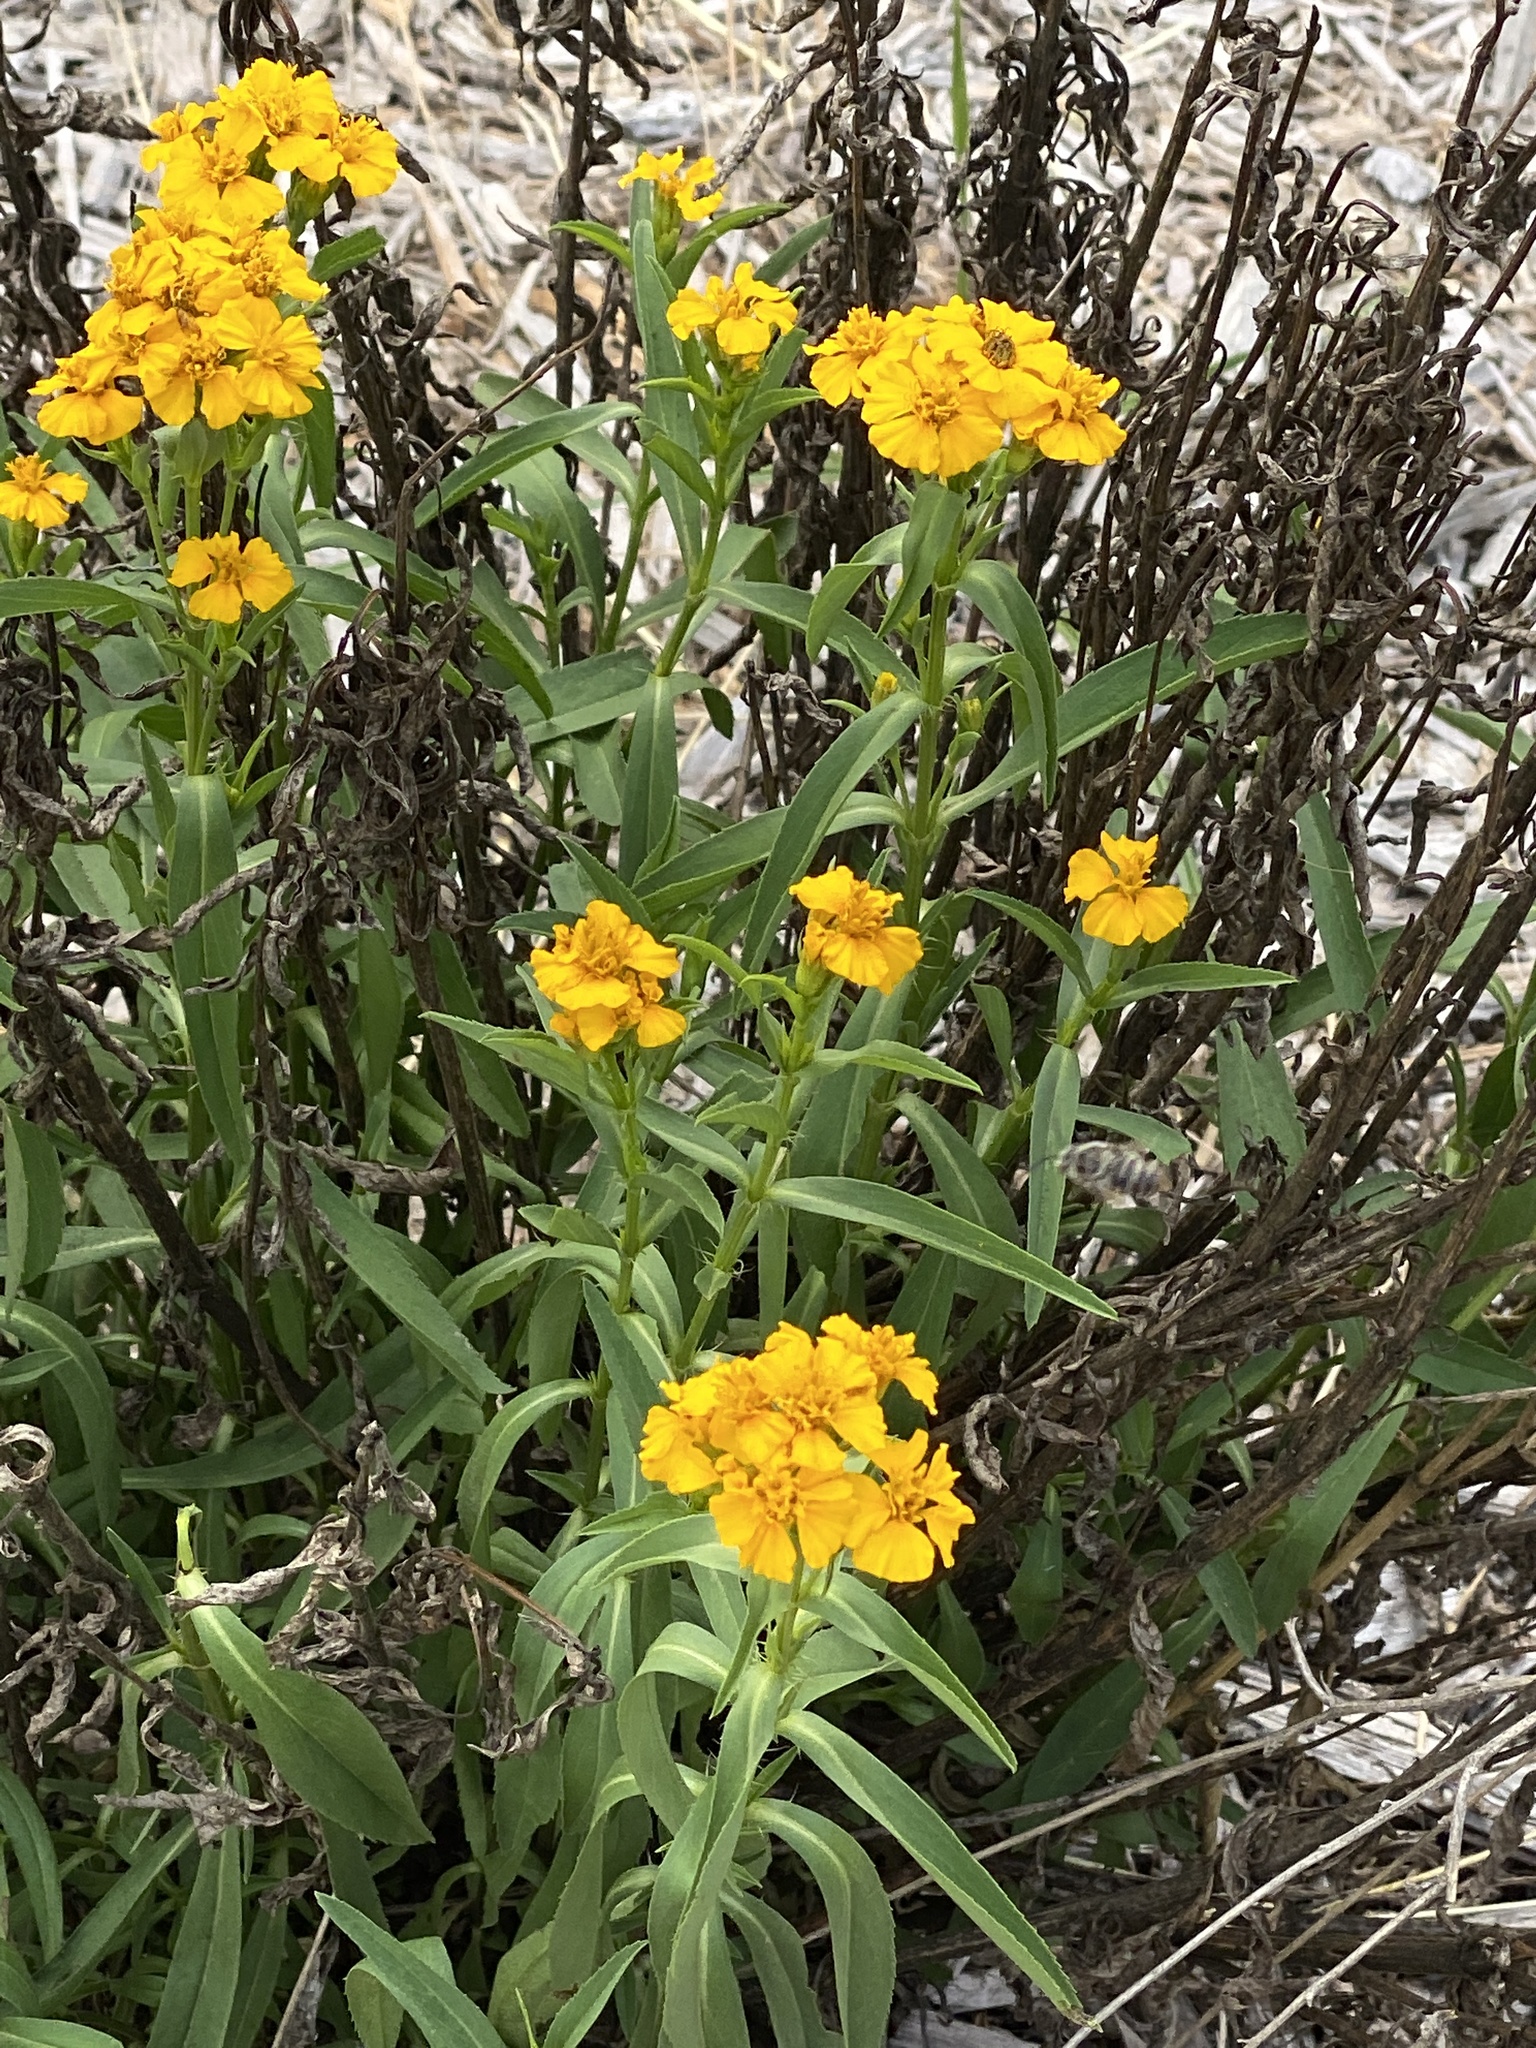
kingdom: Plantae
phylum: Tracheophyta
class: Magnoliopsida
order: Asterales
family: Asteraceae
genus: Tagetes
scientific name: Tagetes lucida
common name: Sweetscented marigold
